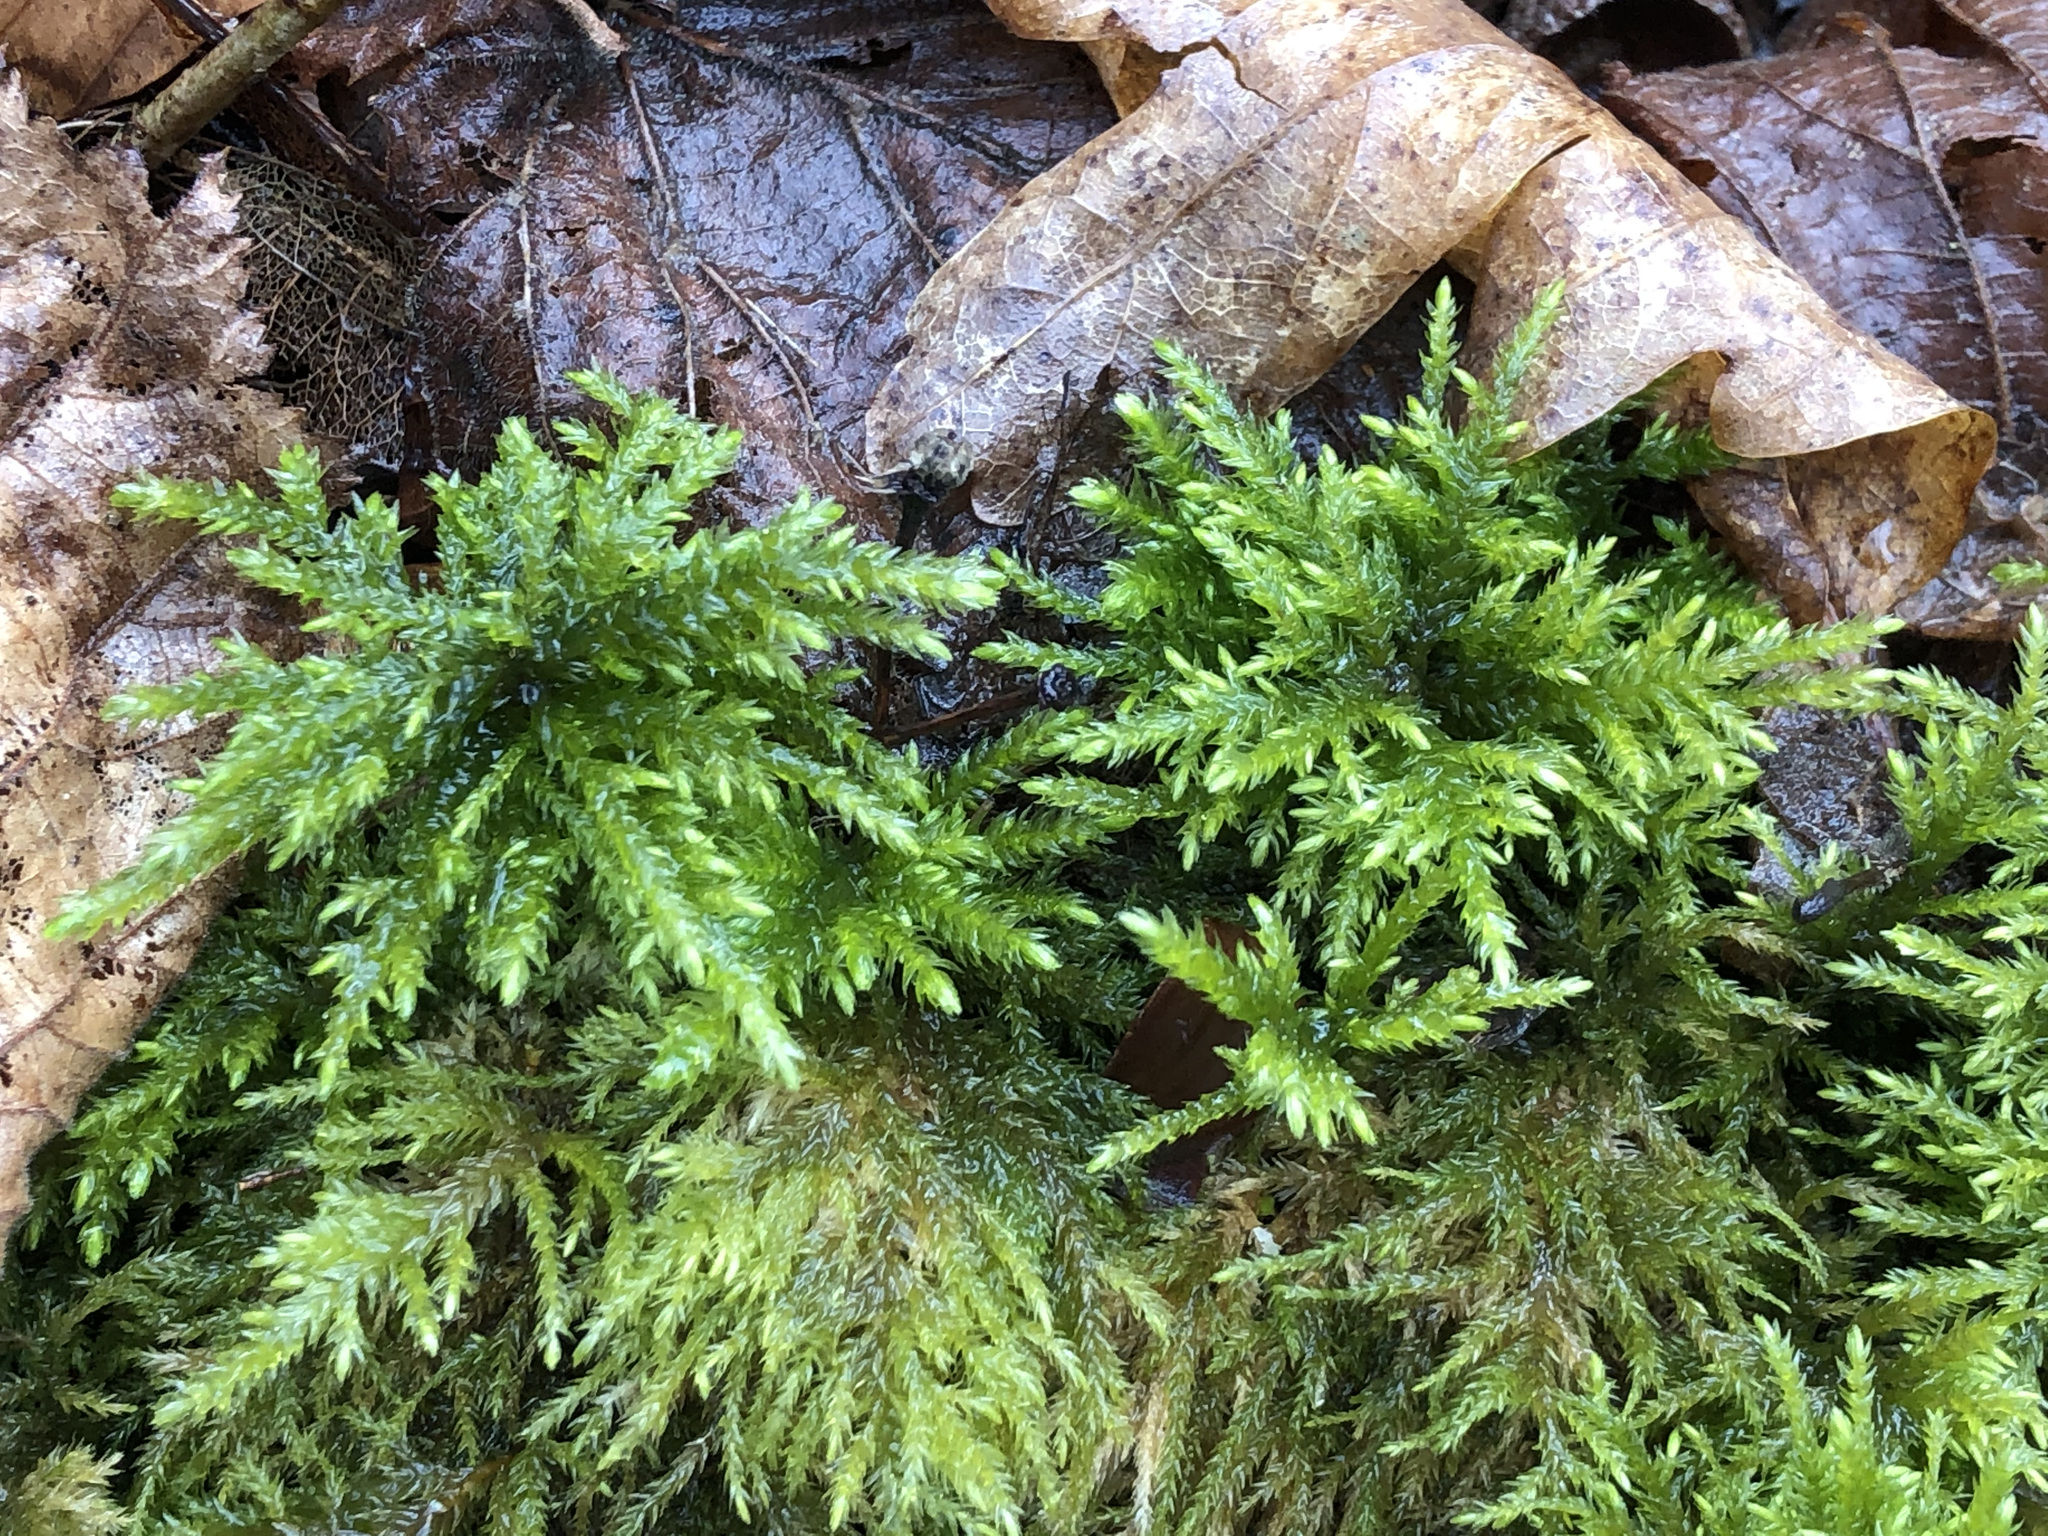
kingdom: Plantae
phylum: Bryophyta
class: Bryopsida
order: Hypnales
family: Neckeraceae
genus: Thamnobryum
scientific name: Thamnobryum alopecurum
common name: Fox-tail feather-moss
